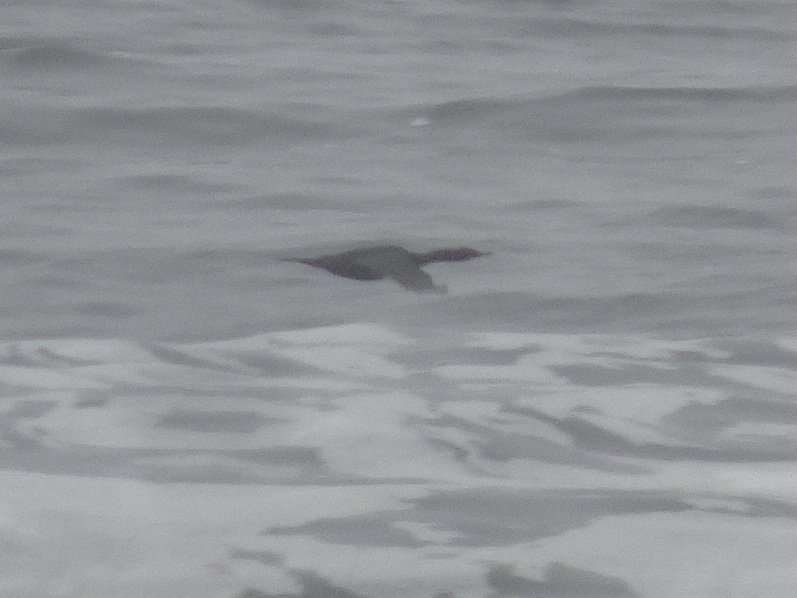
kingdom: Animalia
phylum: Chordata
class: Aves
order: Suliformes
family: Phalacrocoracidae
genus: Phalacrocorax
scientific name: Phalacrocorax pelagicus
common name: Pelagic cormorant
